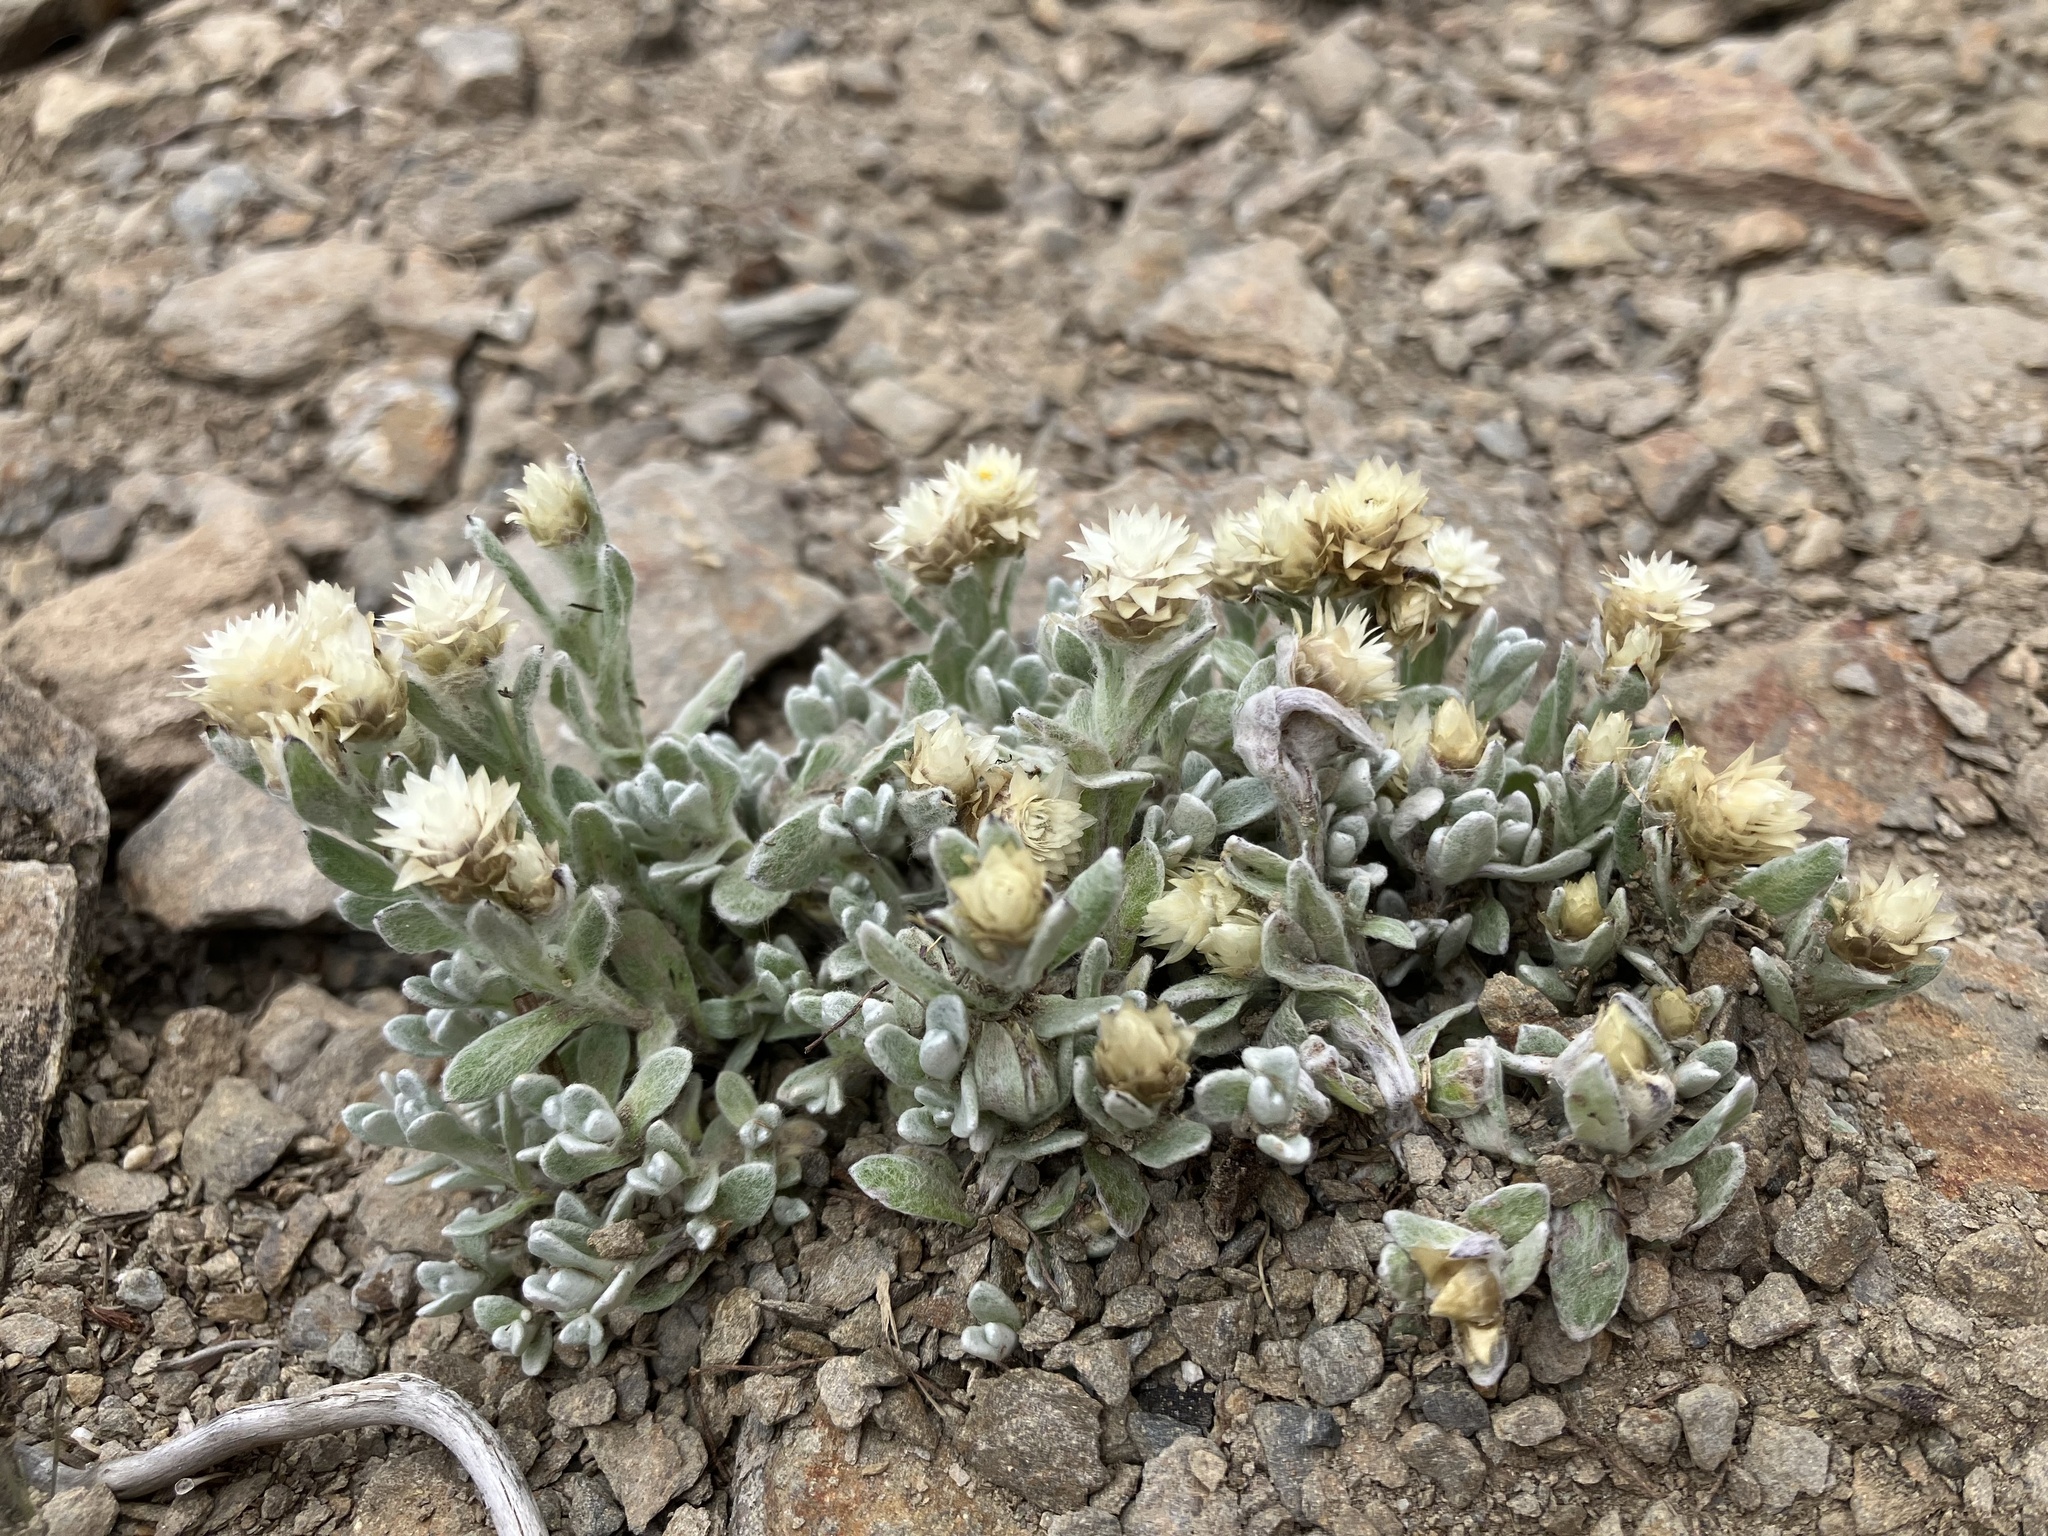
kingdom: Plantae
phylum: Tracheophyta
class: Magnoliopsida
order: Asterales
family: Asteraceae
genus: Anaphalis
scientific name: Anaphalis nepalensis
